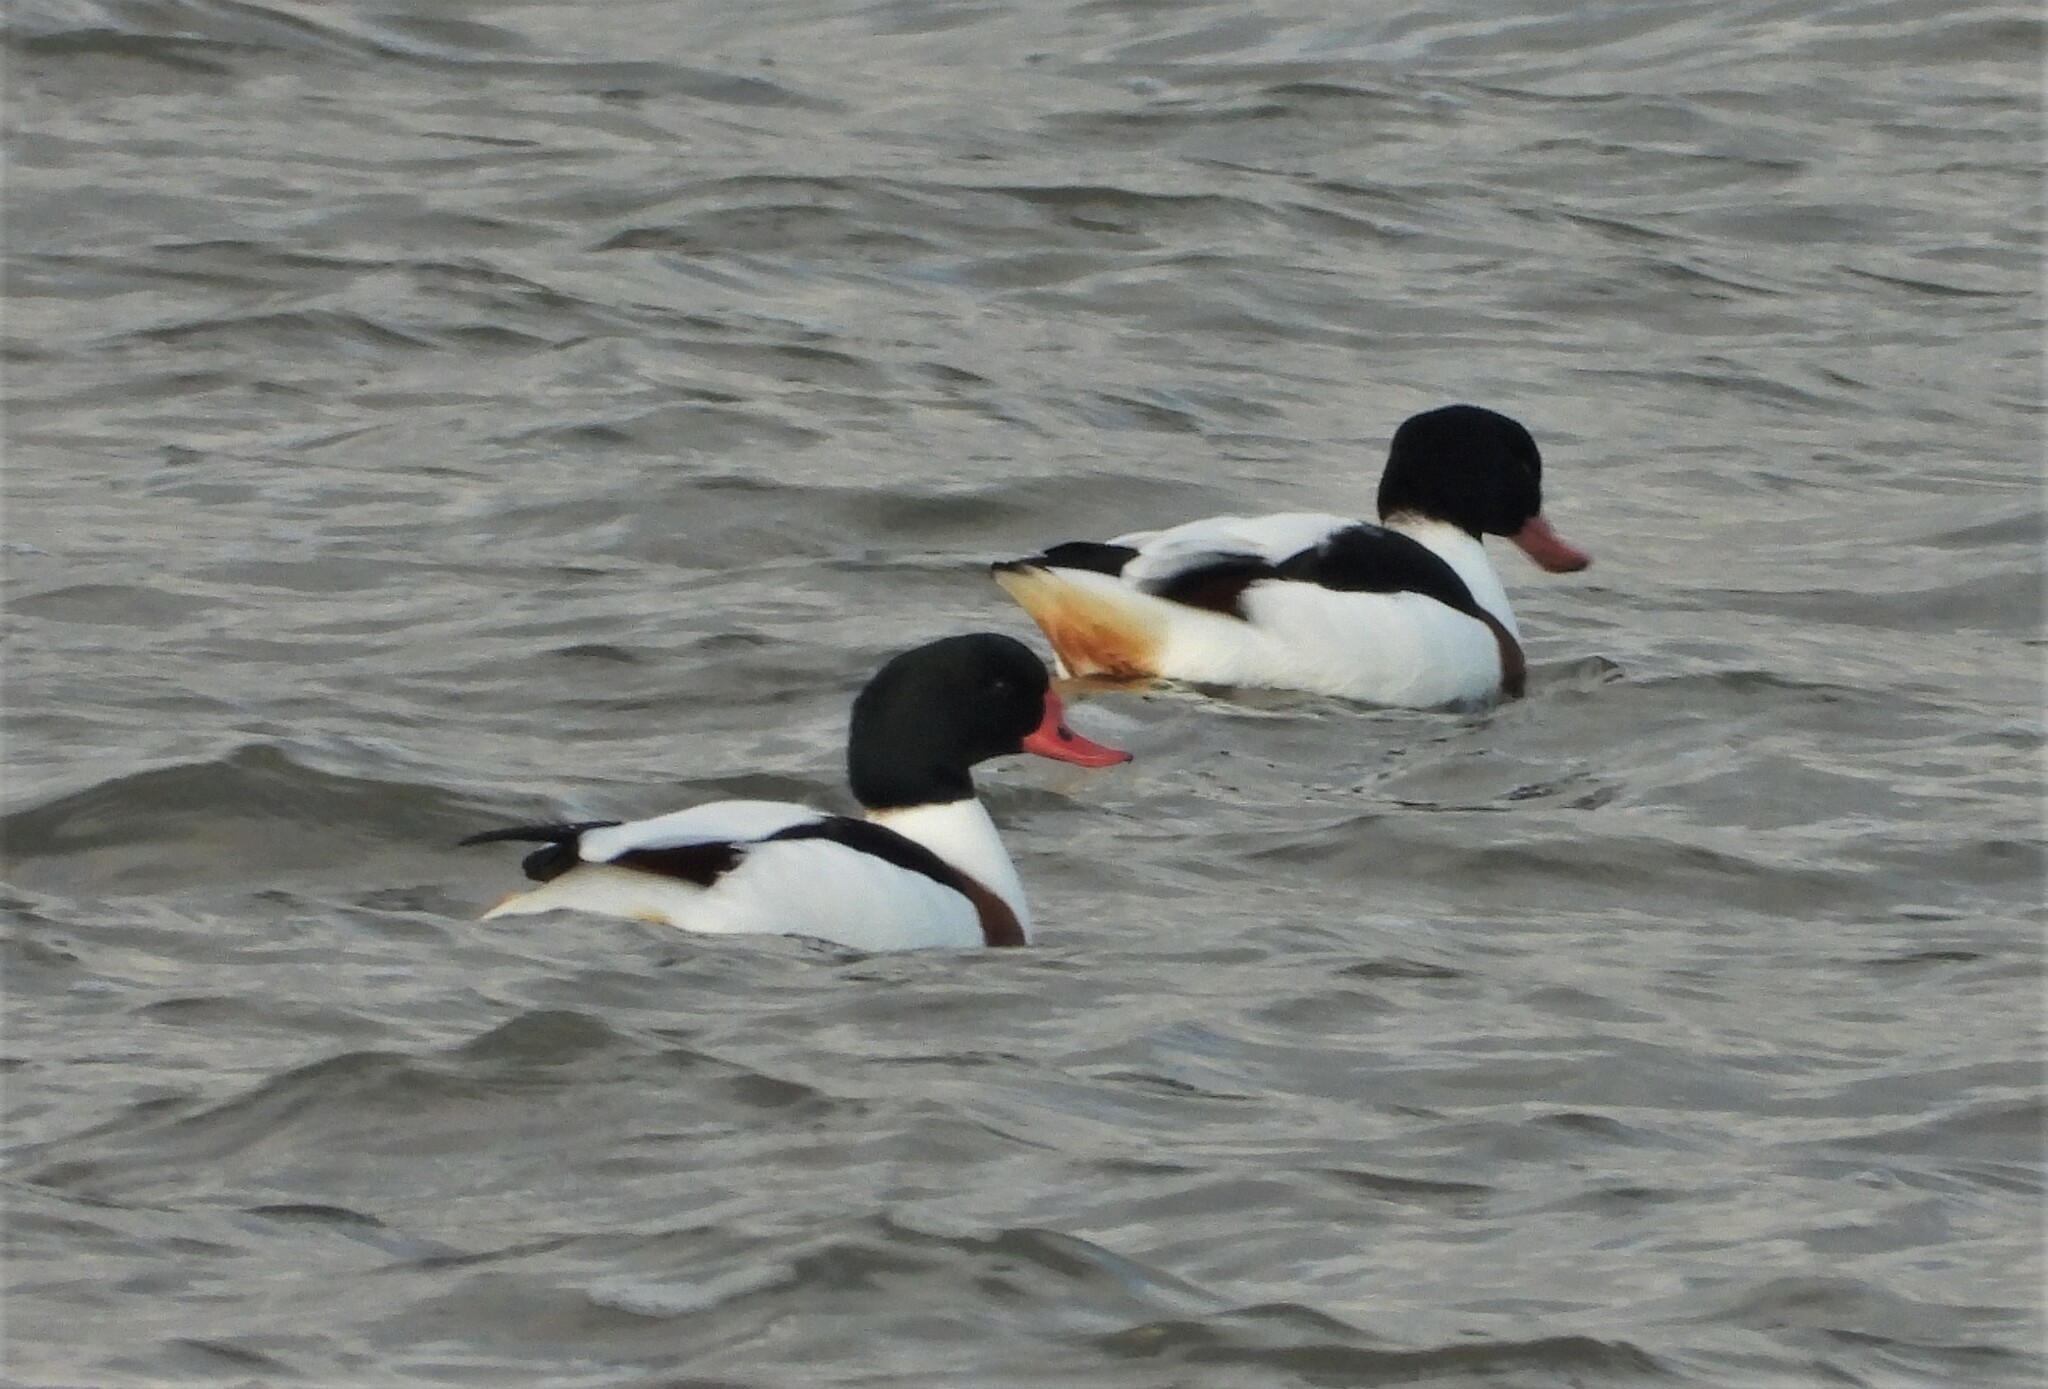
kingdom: Animalia
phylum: Chordata
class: Aves
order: Anseriformes
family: Anatidae
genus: Tadorna
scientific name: Tadorna tadorna
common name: Common shelduck
